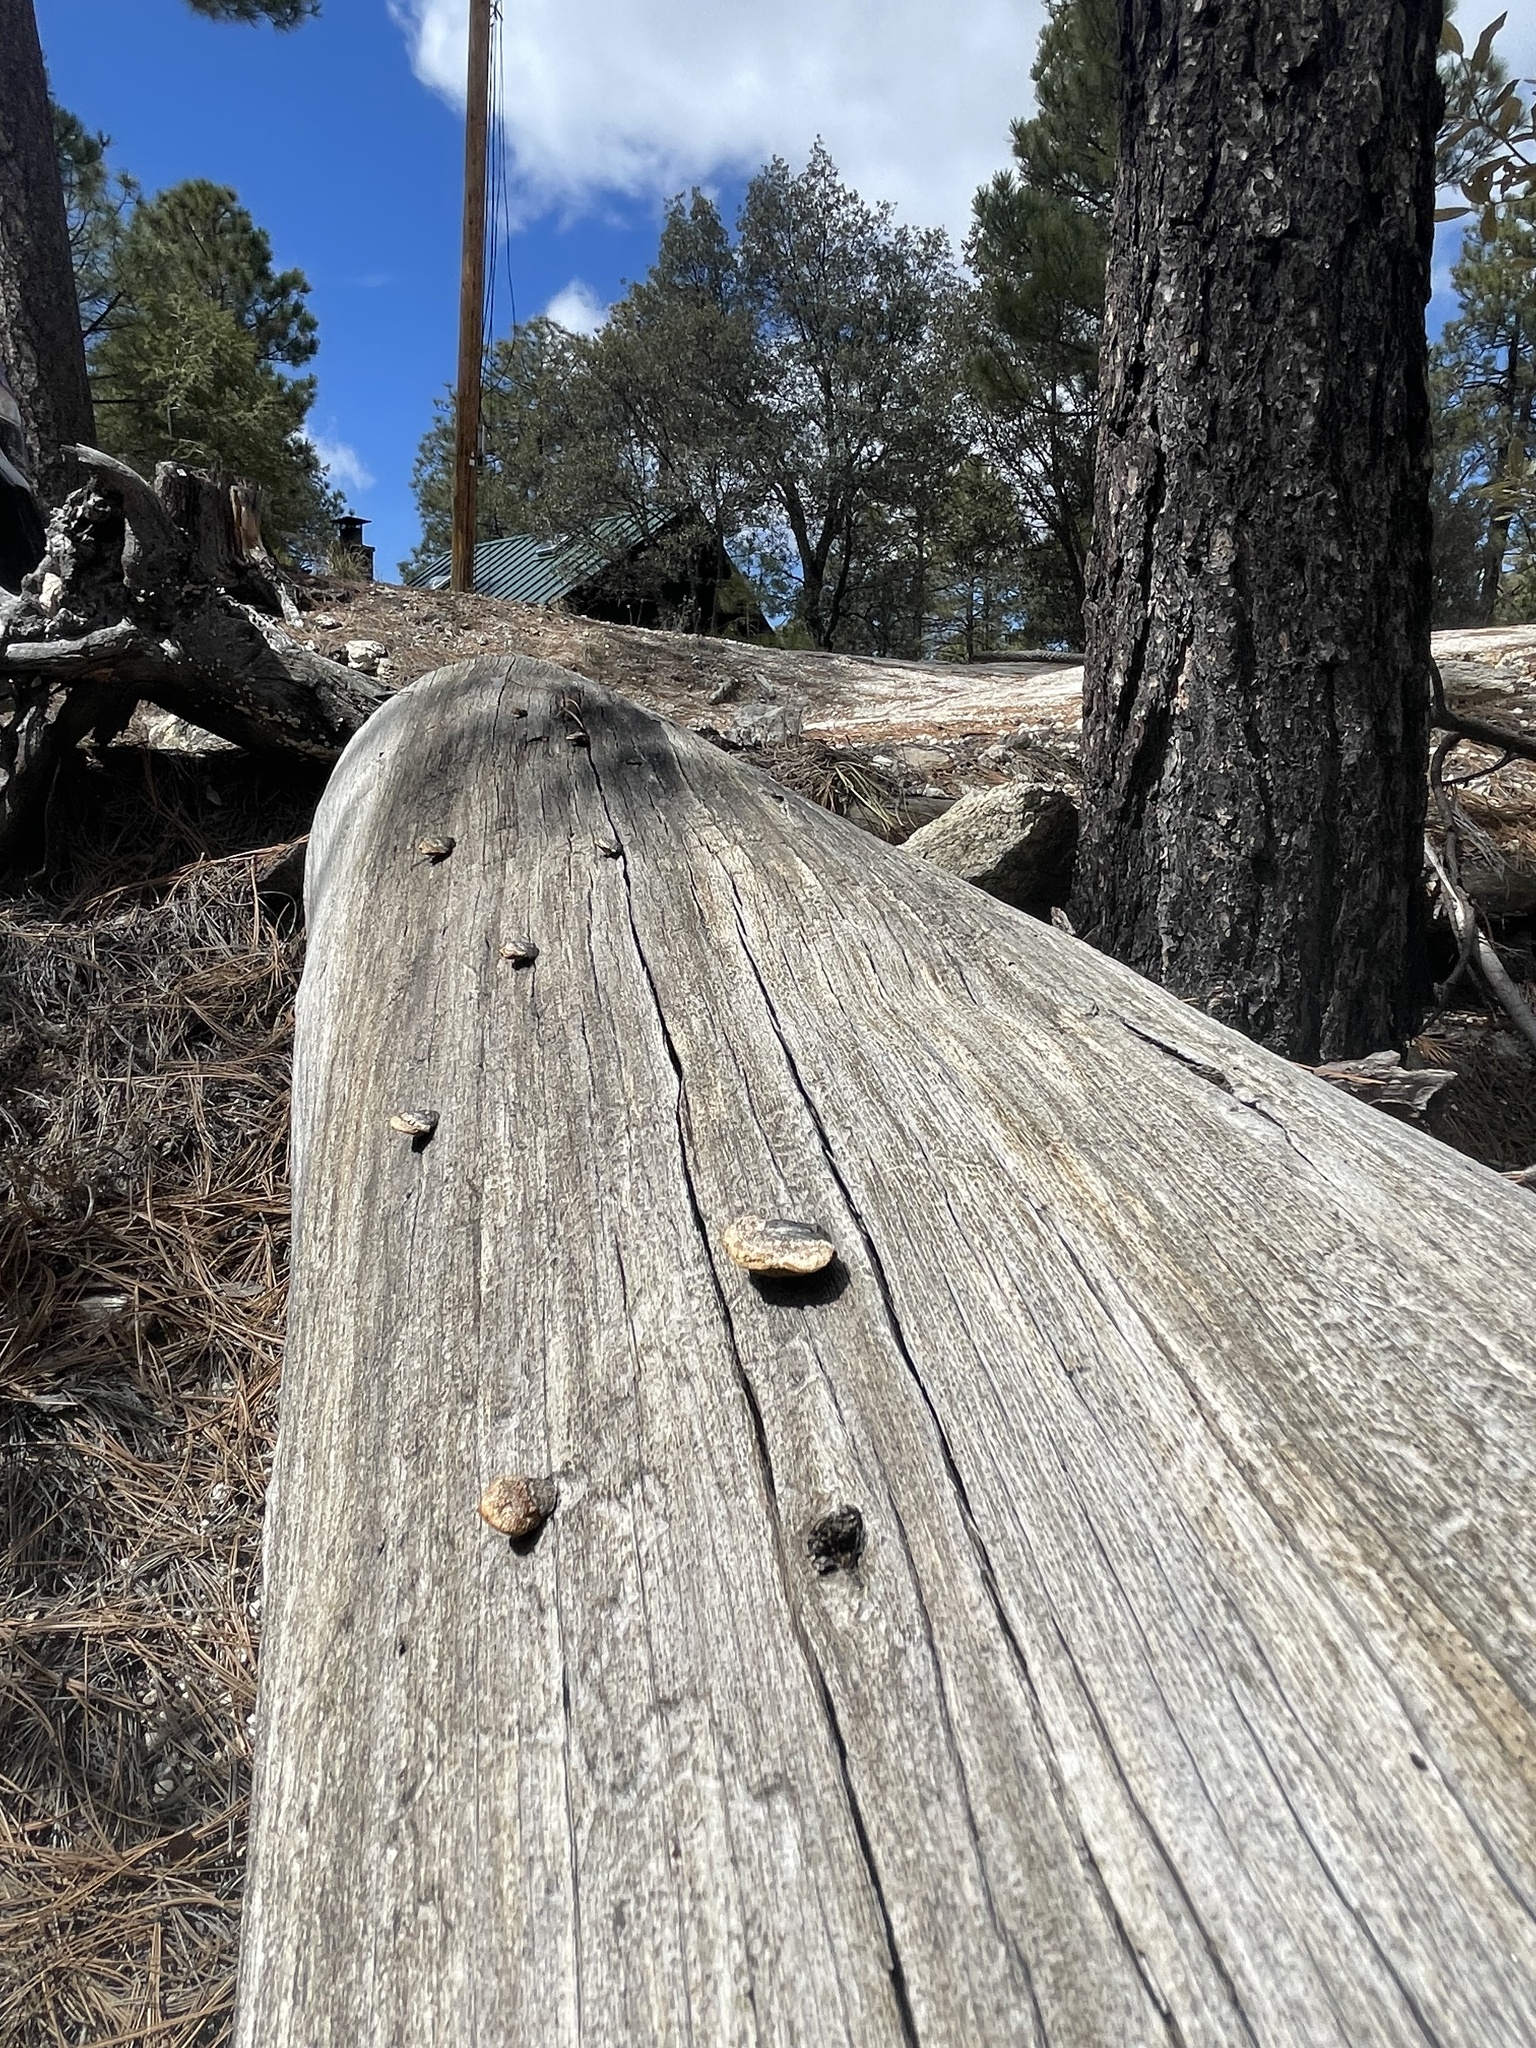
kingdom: Fungi
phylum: Basidiomycota
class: Agaricomycetes
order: Gloeophyllales
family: Gloeophyllaceae
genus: Gloeophyllum
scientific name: Gloeophyllum sepiarium
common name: Conifer mazegill
